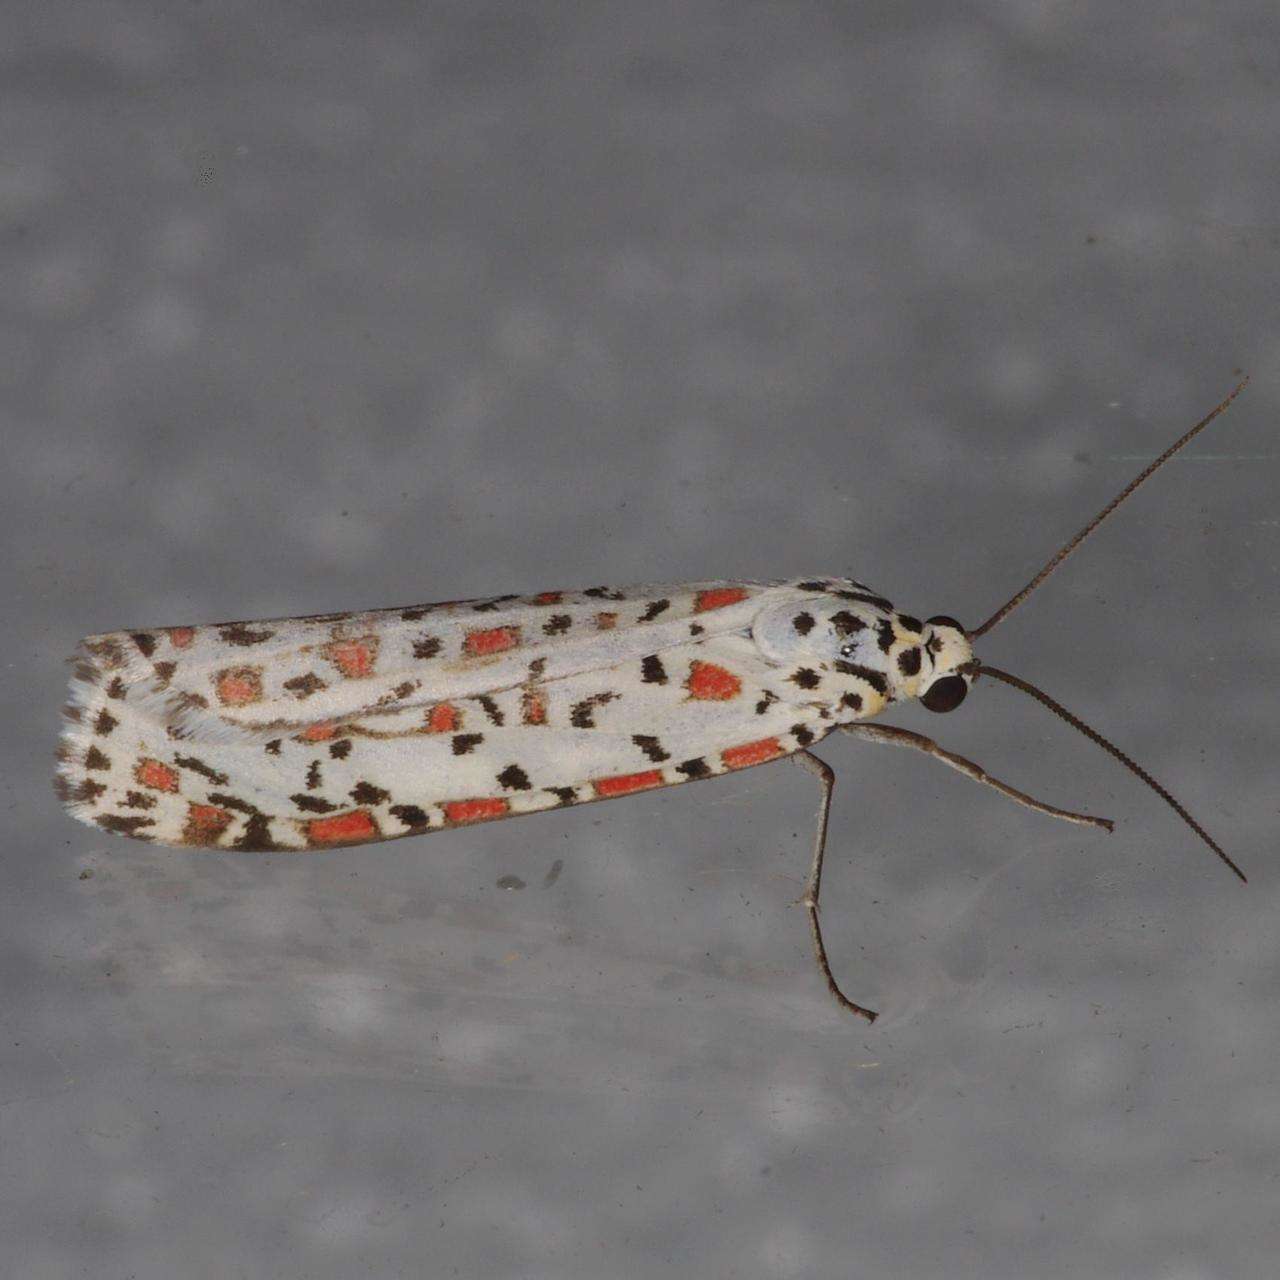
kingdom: Animalia
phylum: Arthropoda
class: Insecta
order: Lepidoptera
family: Erebidae
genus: Utetheisa
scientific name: Utetheisa pulchelloides
